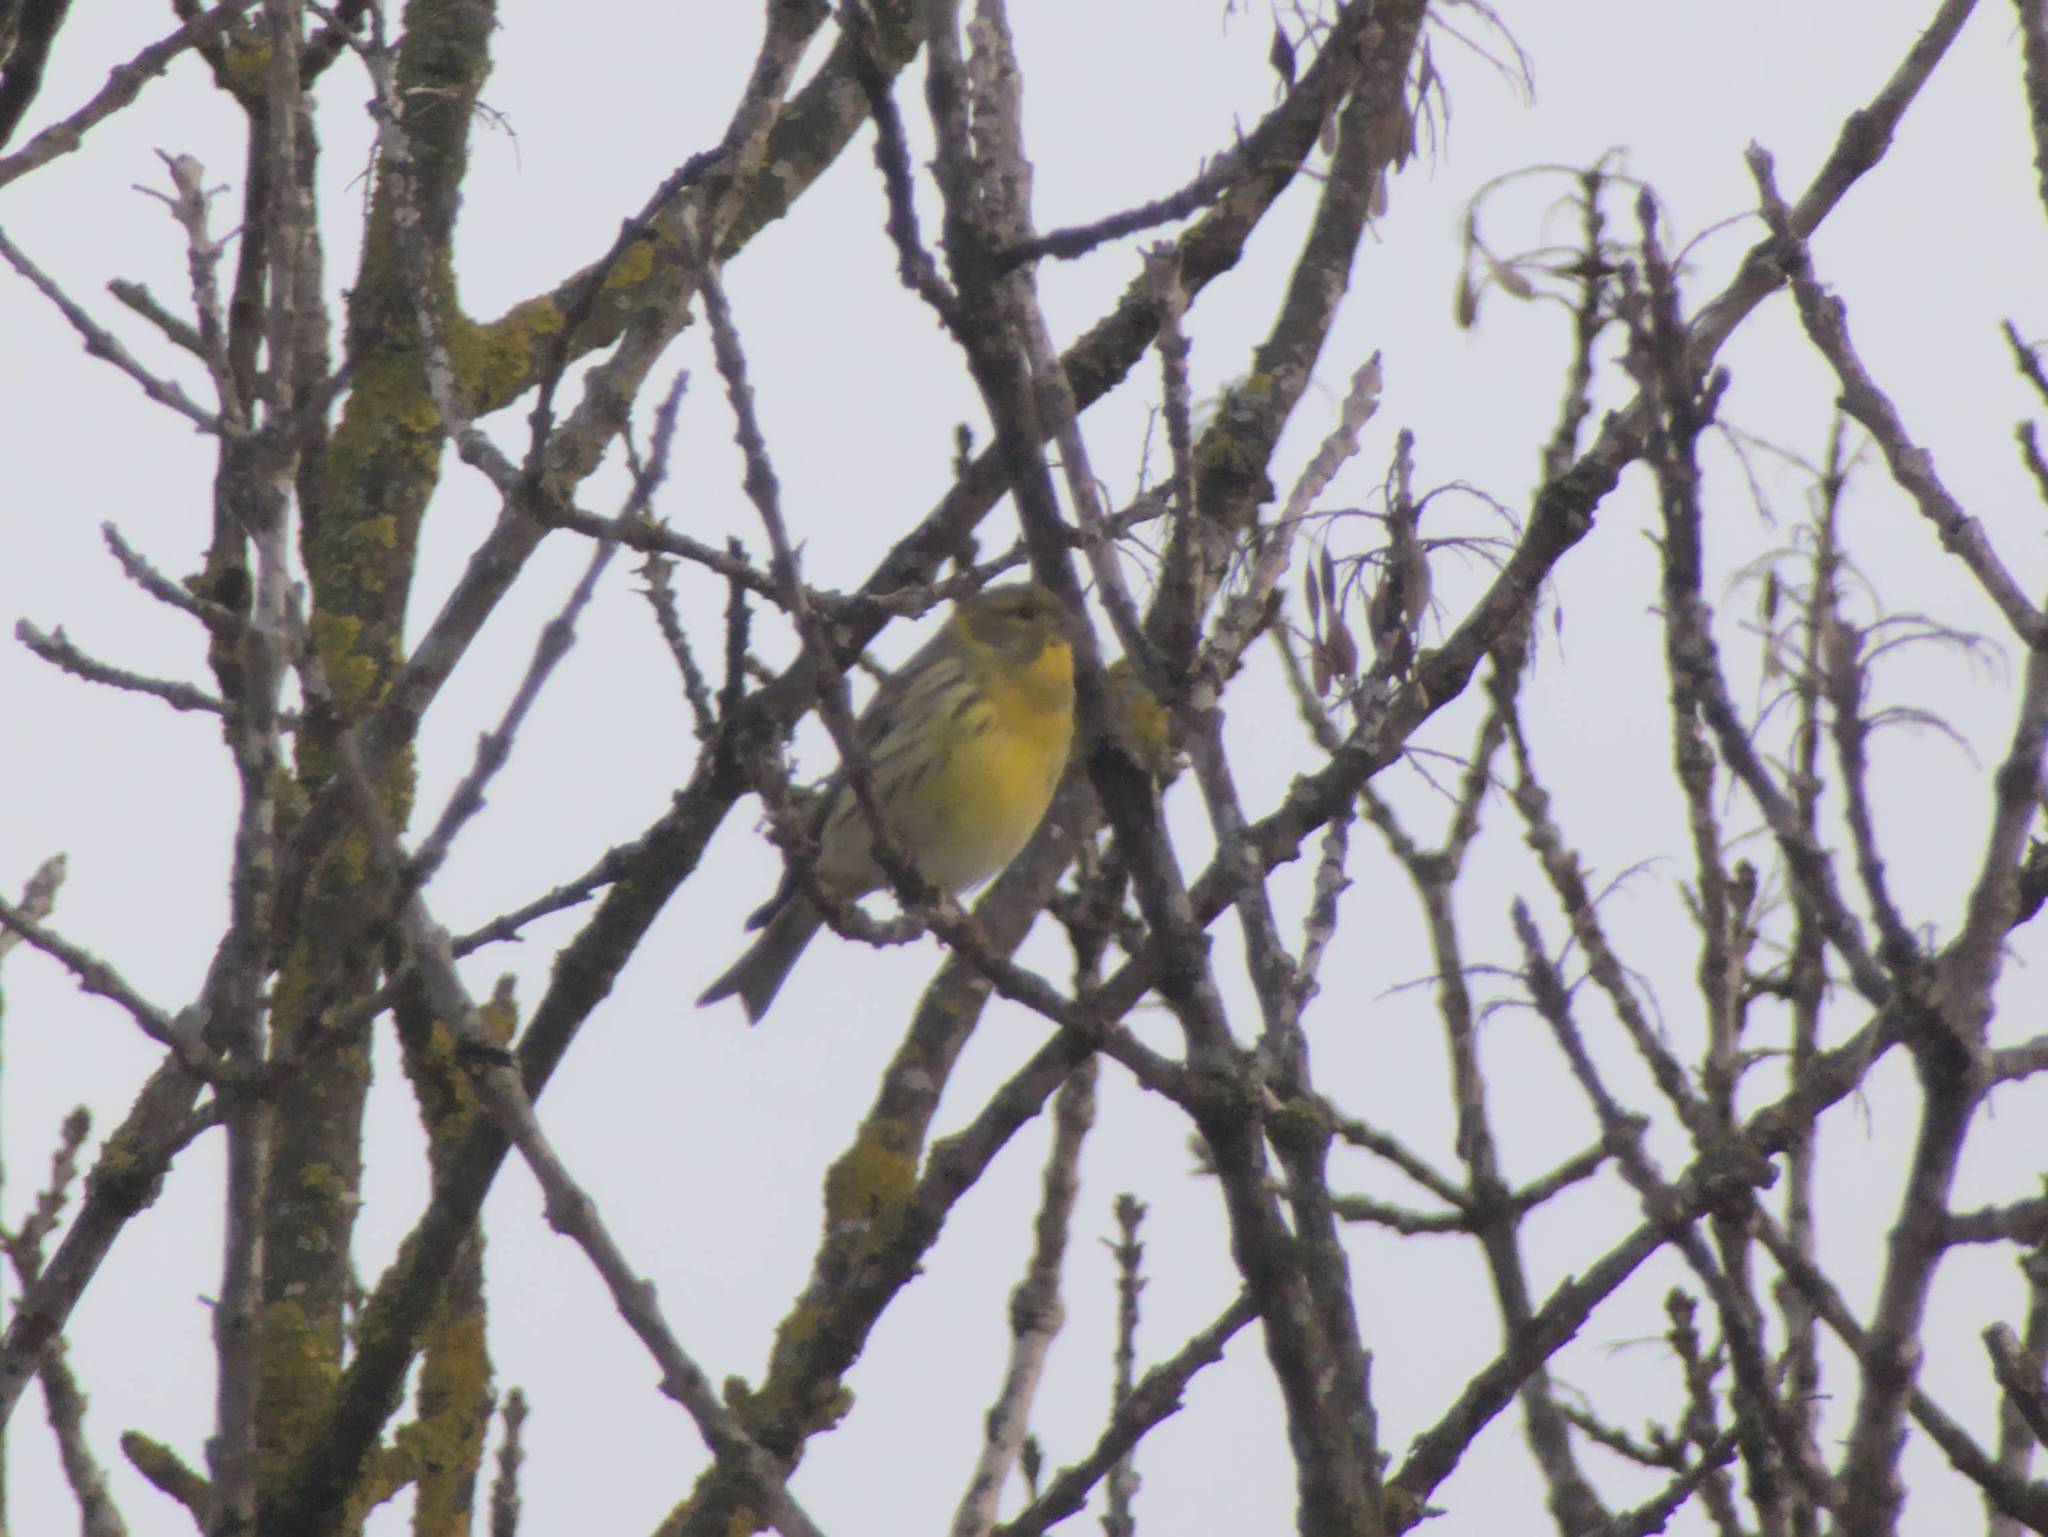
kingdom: Animalia
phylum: Chordata
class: Aves
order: Passeriformes
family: Fringillidae
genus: Serinus
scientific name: Serinus serinus
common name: European serin
